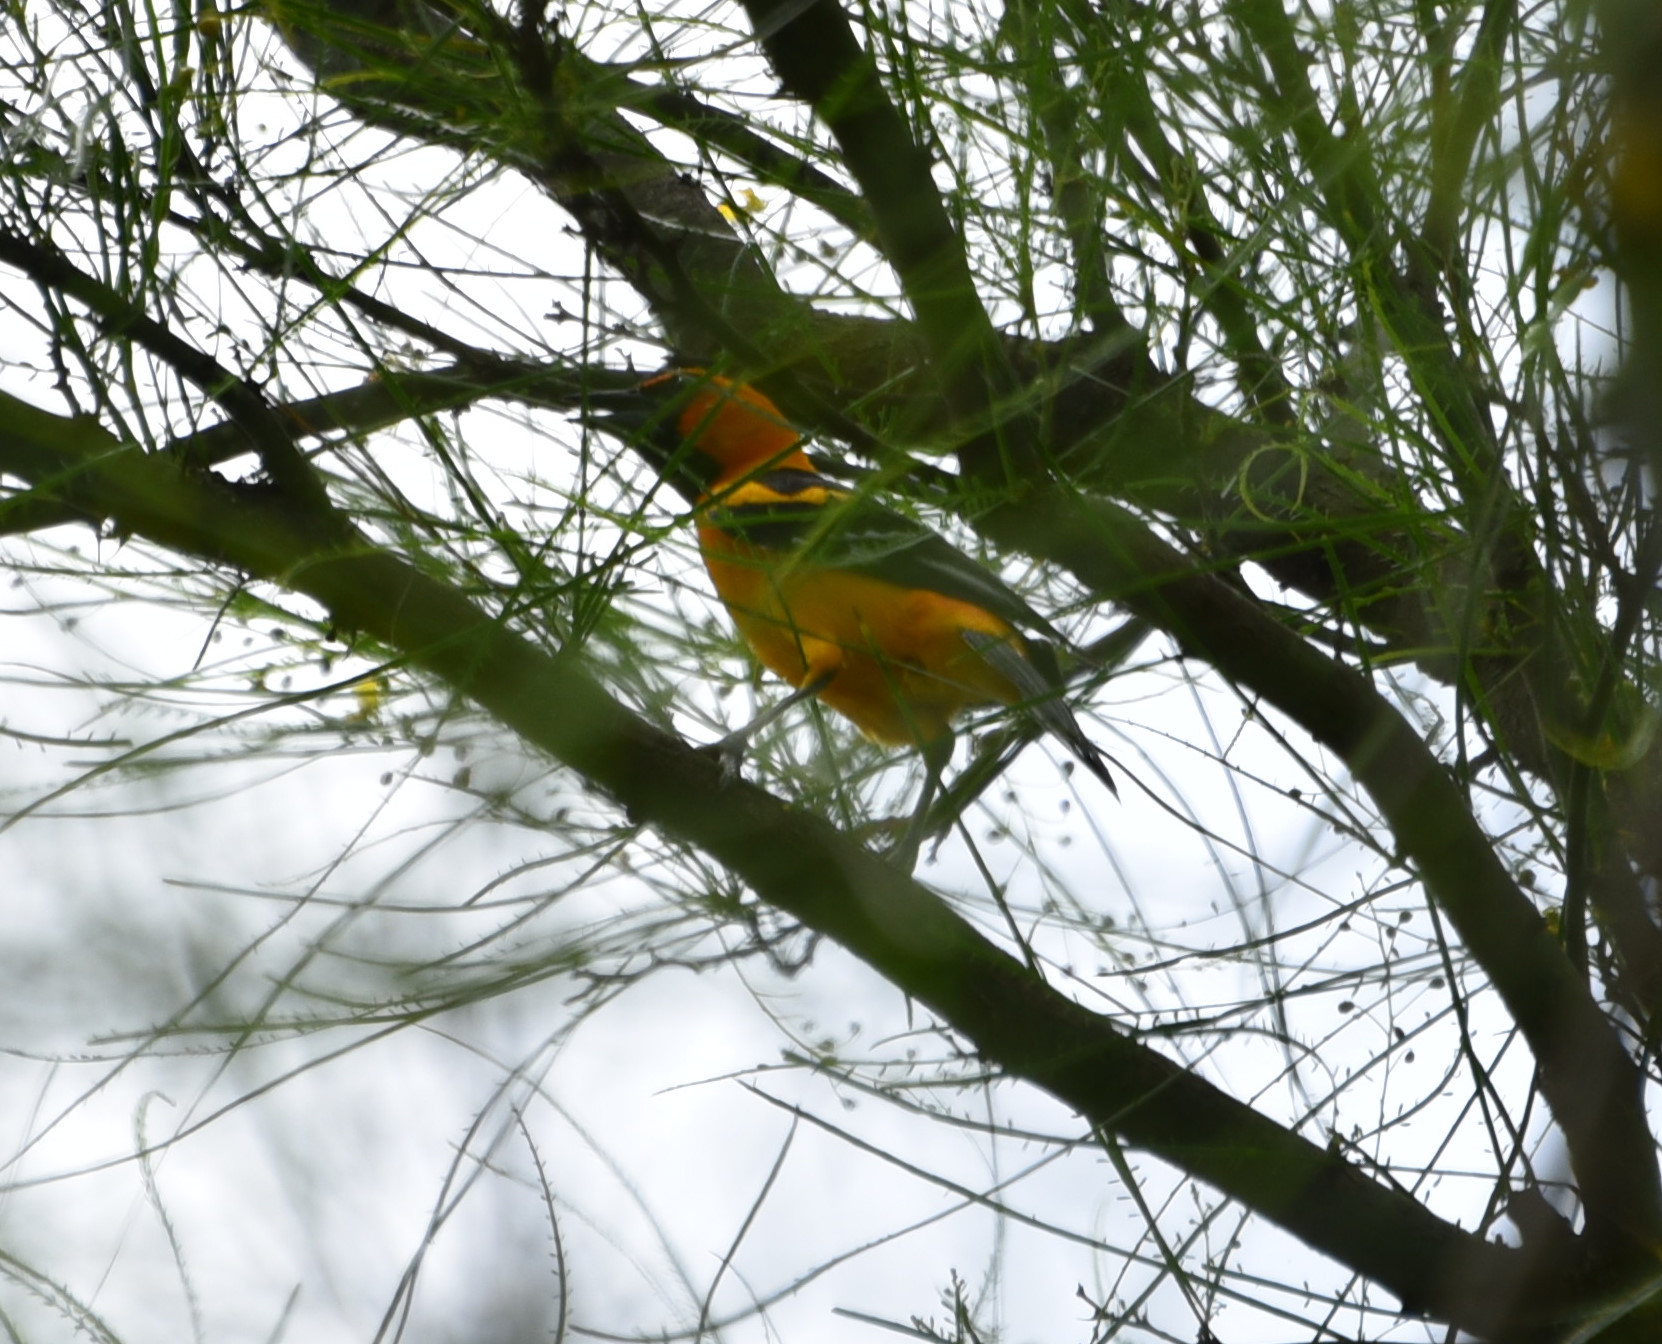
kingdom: Animalia
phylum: Chordata
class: Aves
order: Passeriformes
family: Icteridae
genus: Icterus
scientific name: Icterus gularis
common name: Altamira oriole
